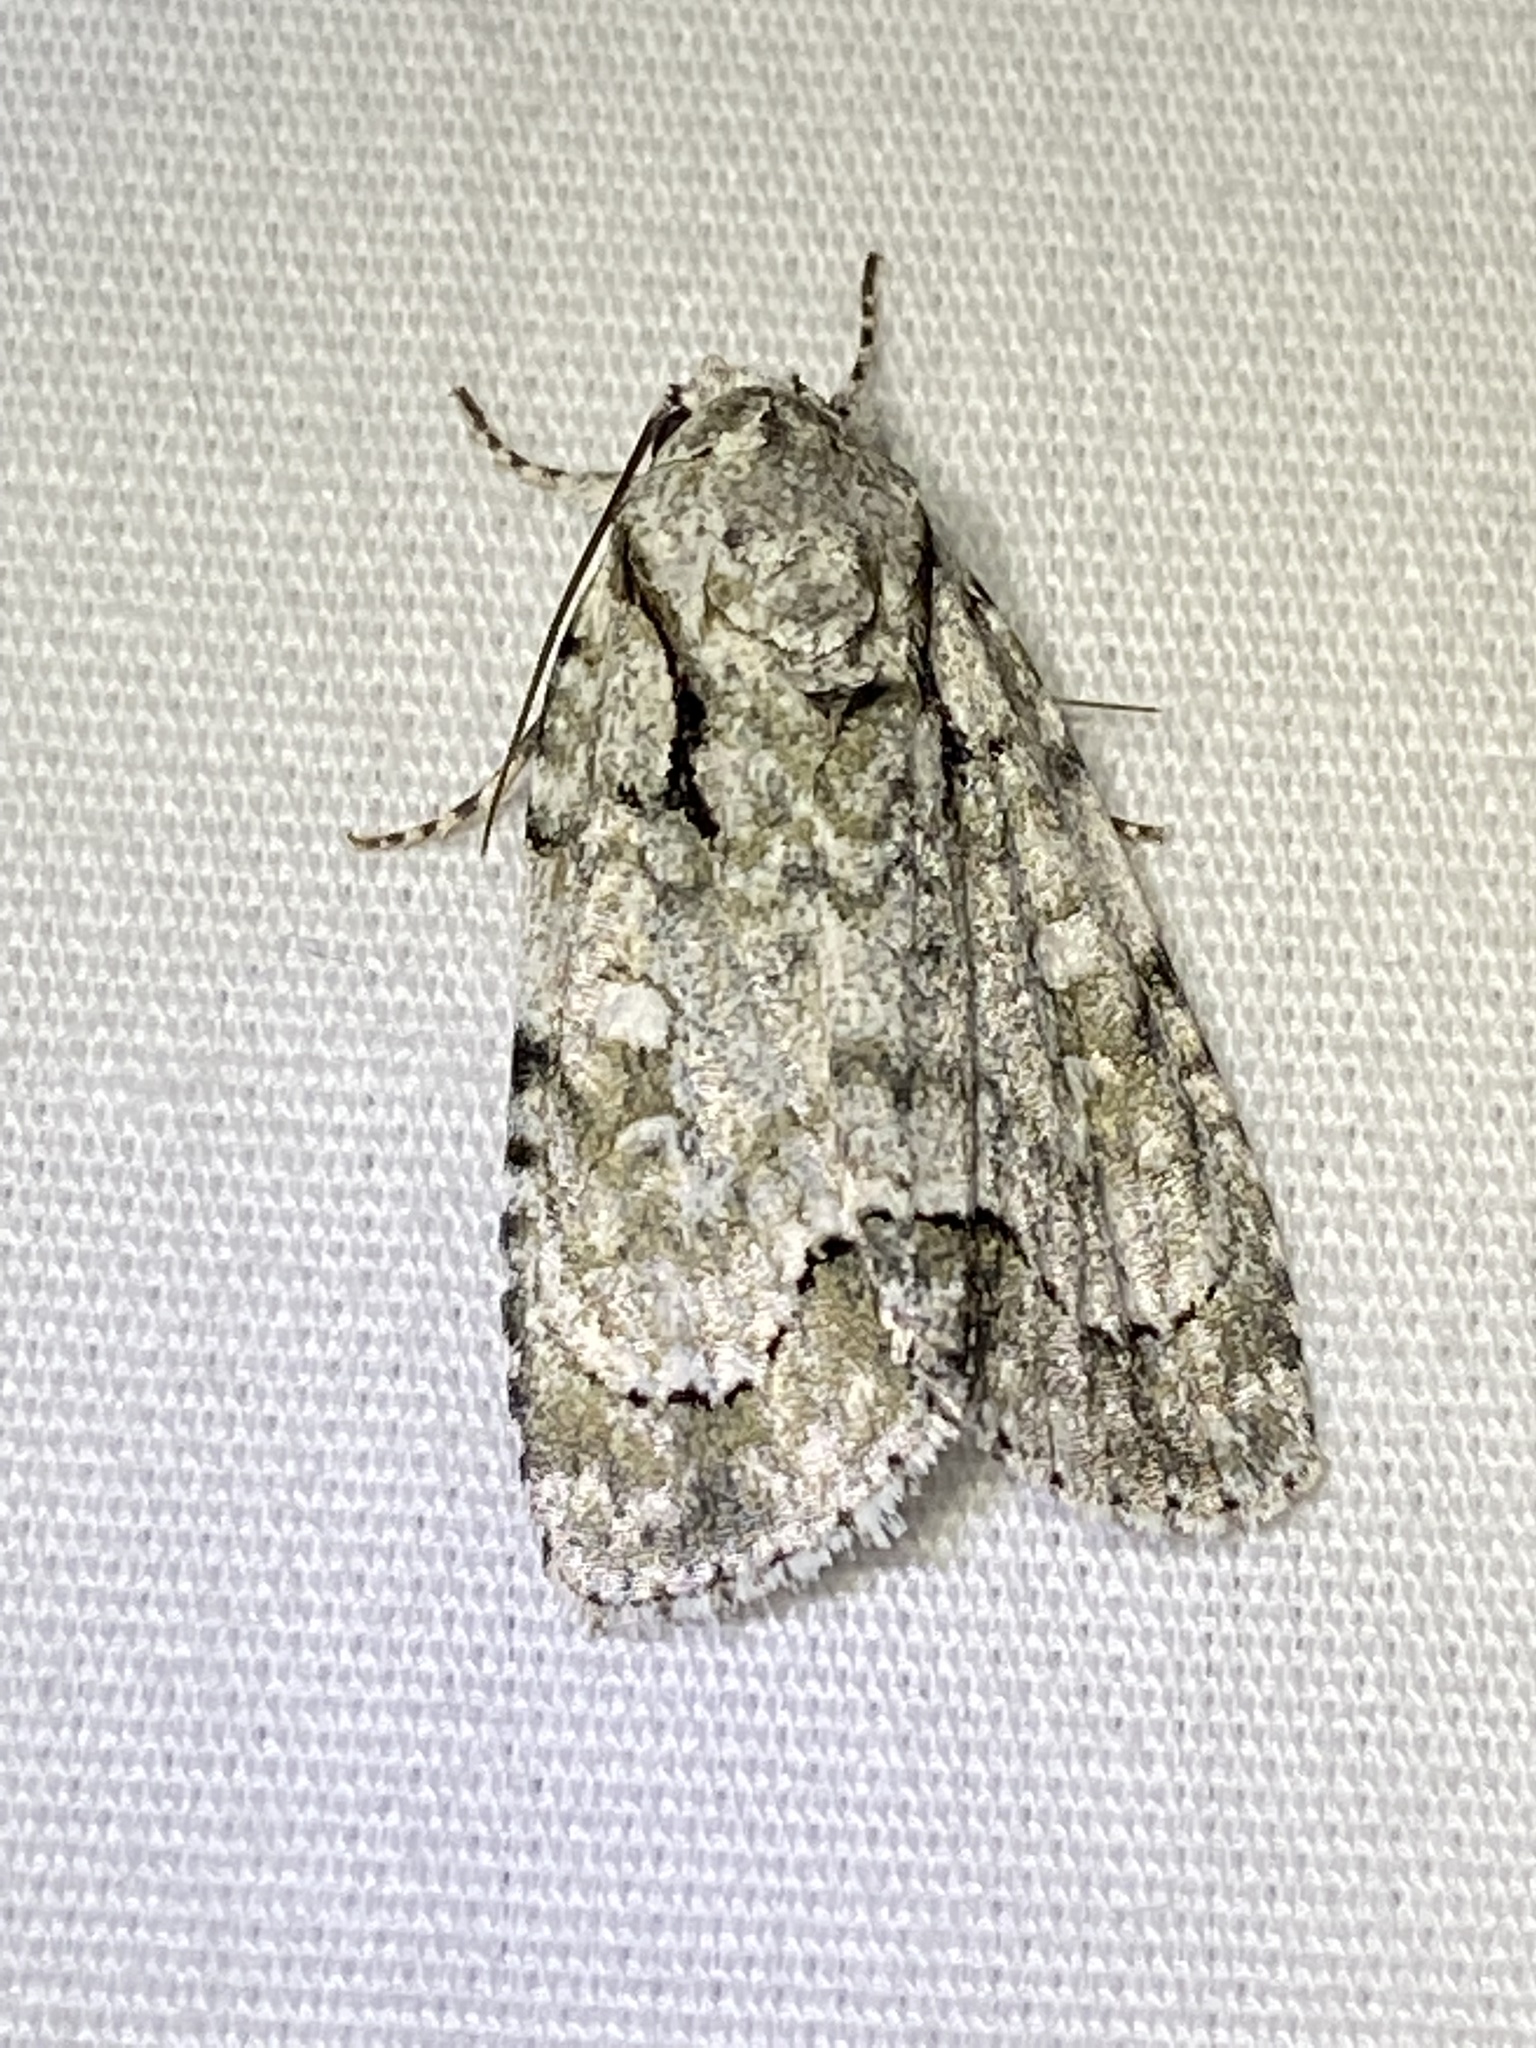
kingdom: Animalia
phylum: Arthropoda
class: Insecta
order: Lepidoptera
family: Noctuidae
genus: Acronicta
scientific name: Acronicta vinnula
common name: Delightful dagger
